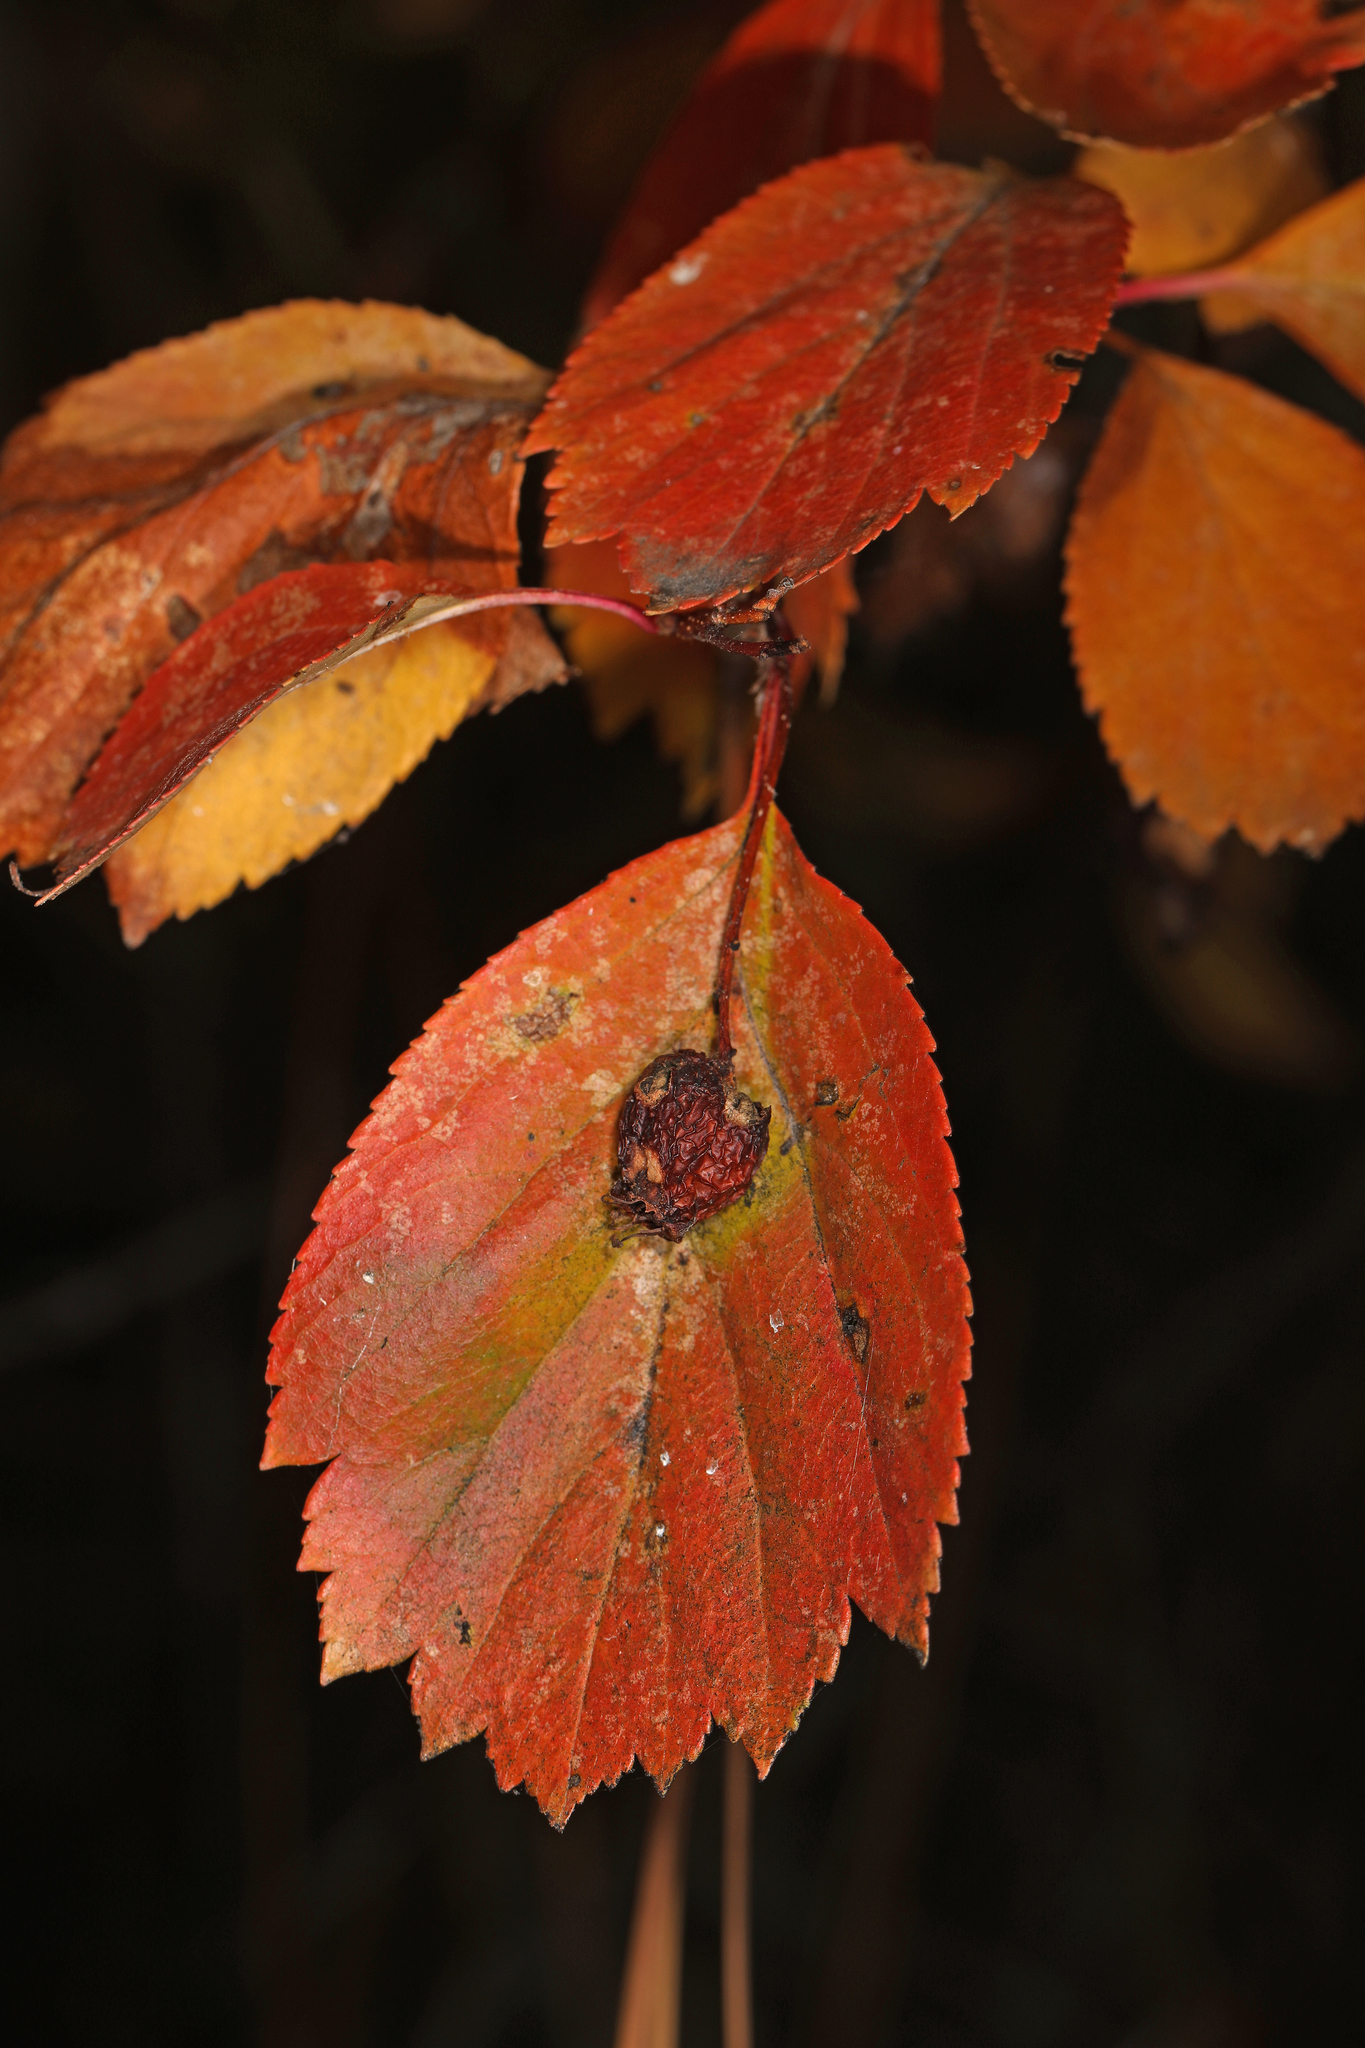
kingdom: Plantae
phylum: Tracheophyta
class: Magnoliopsida
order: Rosales
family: Rosaceae
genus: Crataegus
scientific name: Crataegus douglasii
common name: Black hawthorn
